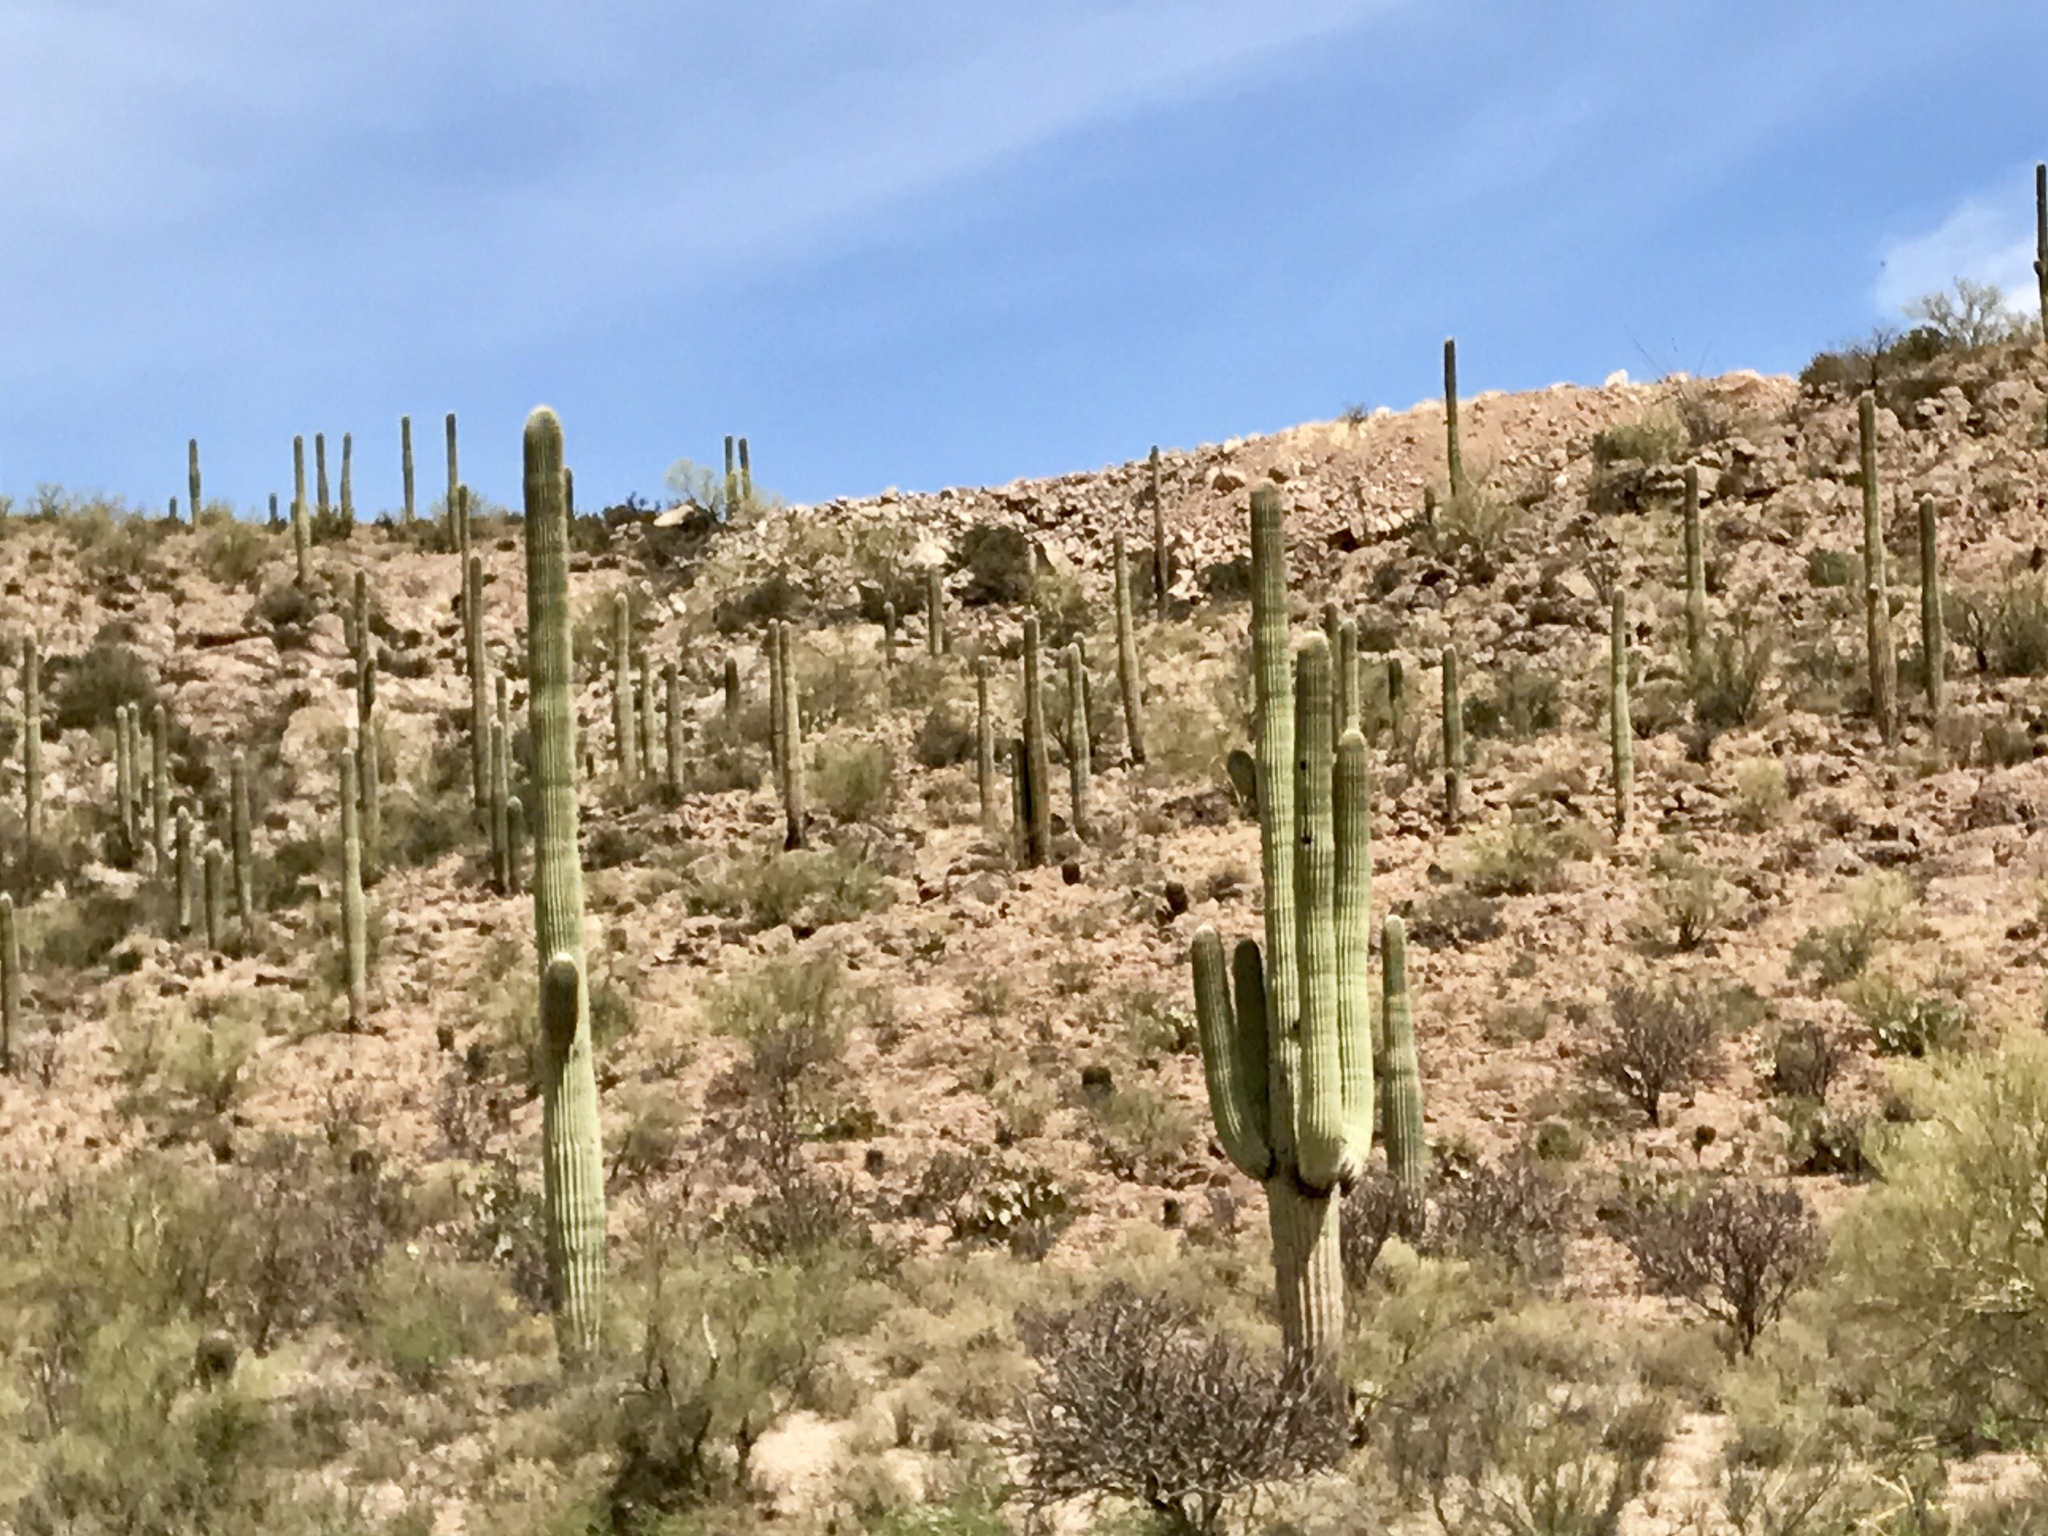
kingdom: Plantae
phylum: Tracheophyta
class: Magnoliopsida
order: Caryophyllales
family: Cactaceae
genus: Carnegiea
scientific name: Carnegiea gigantea
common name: Saguaro
